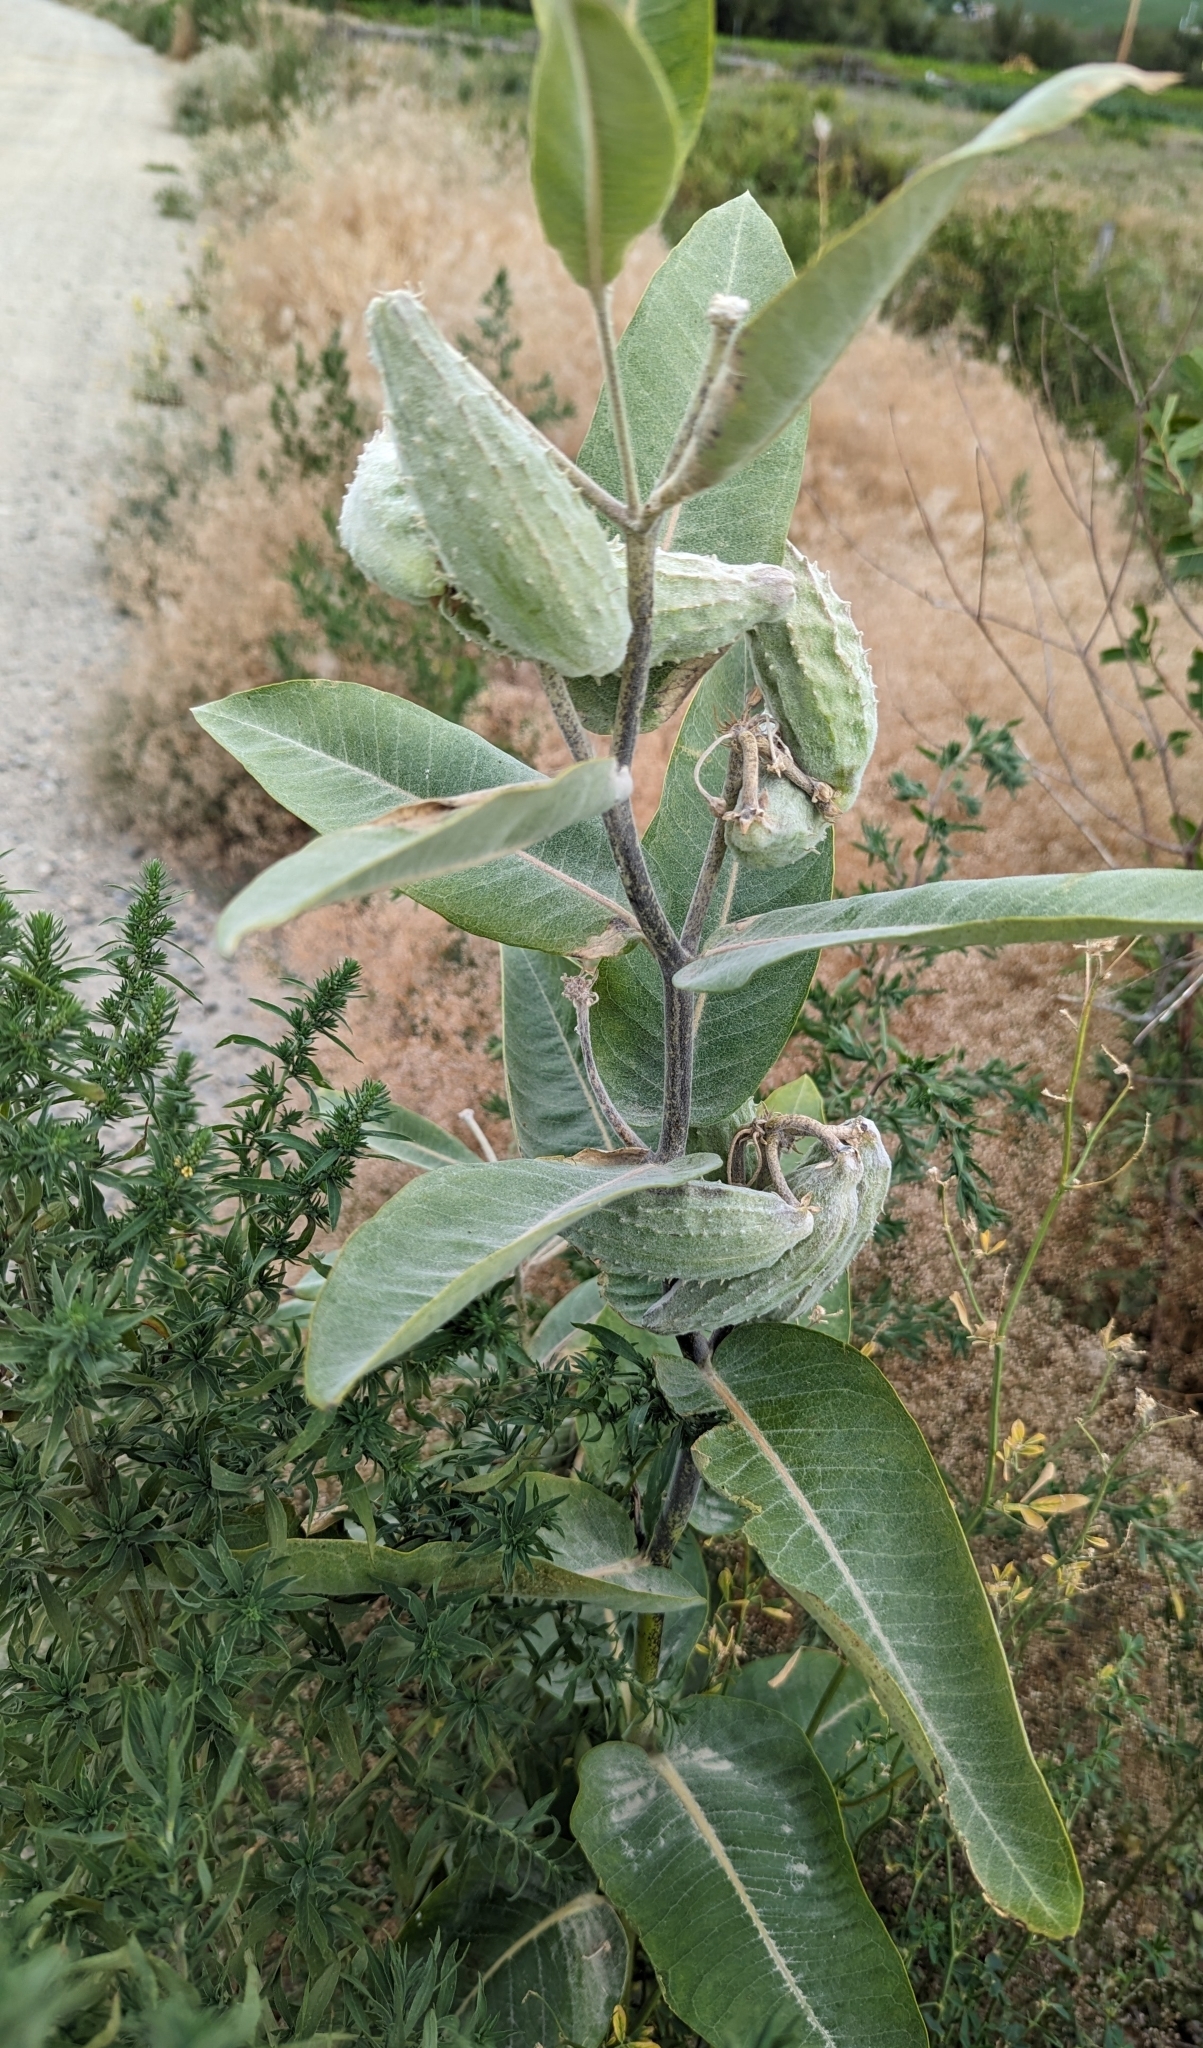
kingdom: Plantae
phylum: Tracheophyta
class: Magnoliopsida
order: Gentianales
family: Apocynaceae
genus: Asclepias
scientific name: Asclepias speciosa
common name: Showy milkweed
